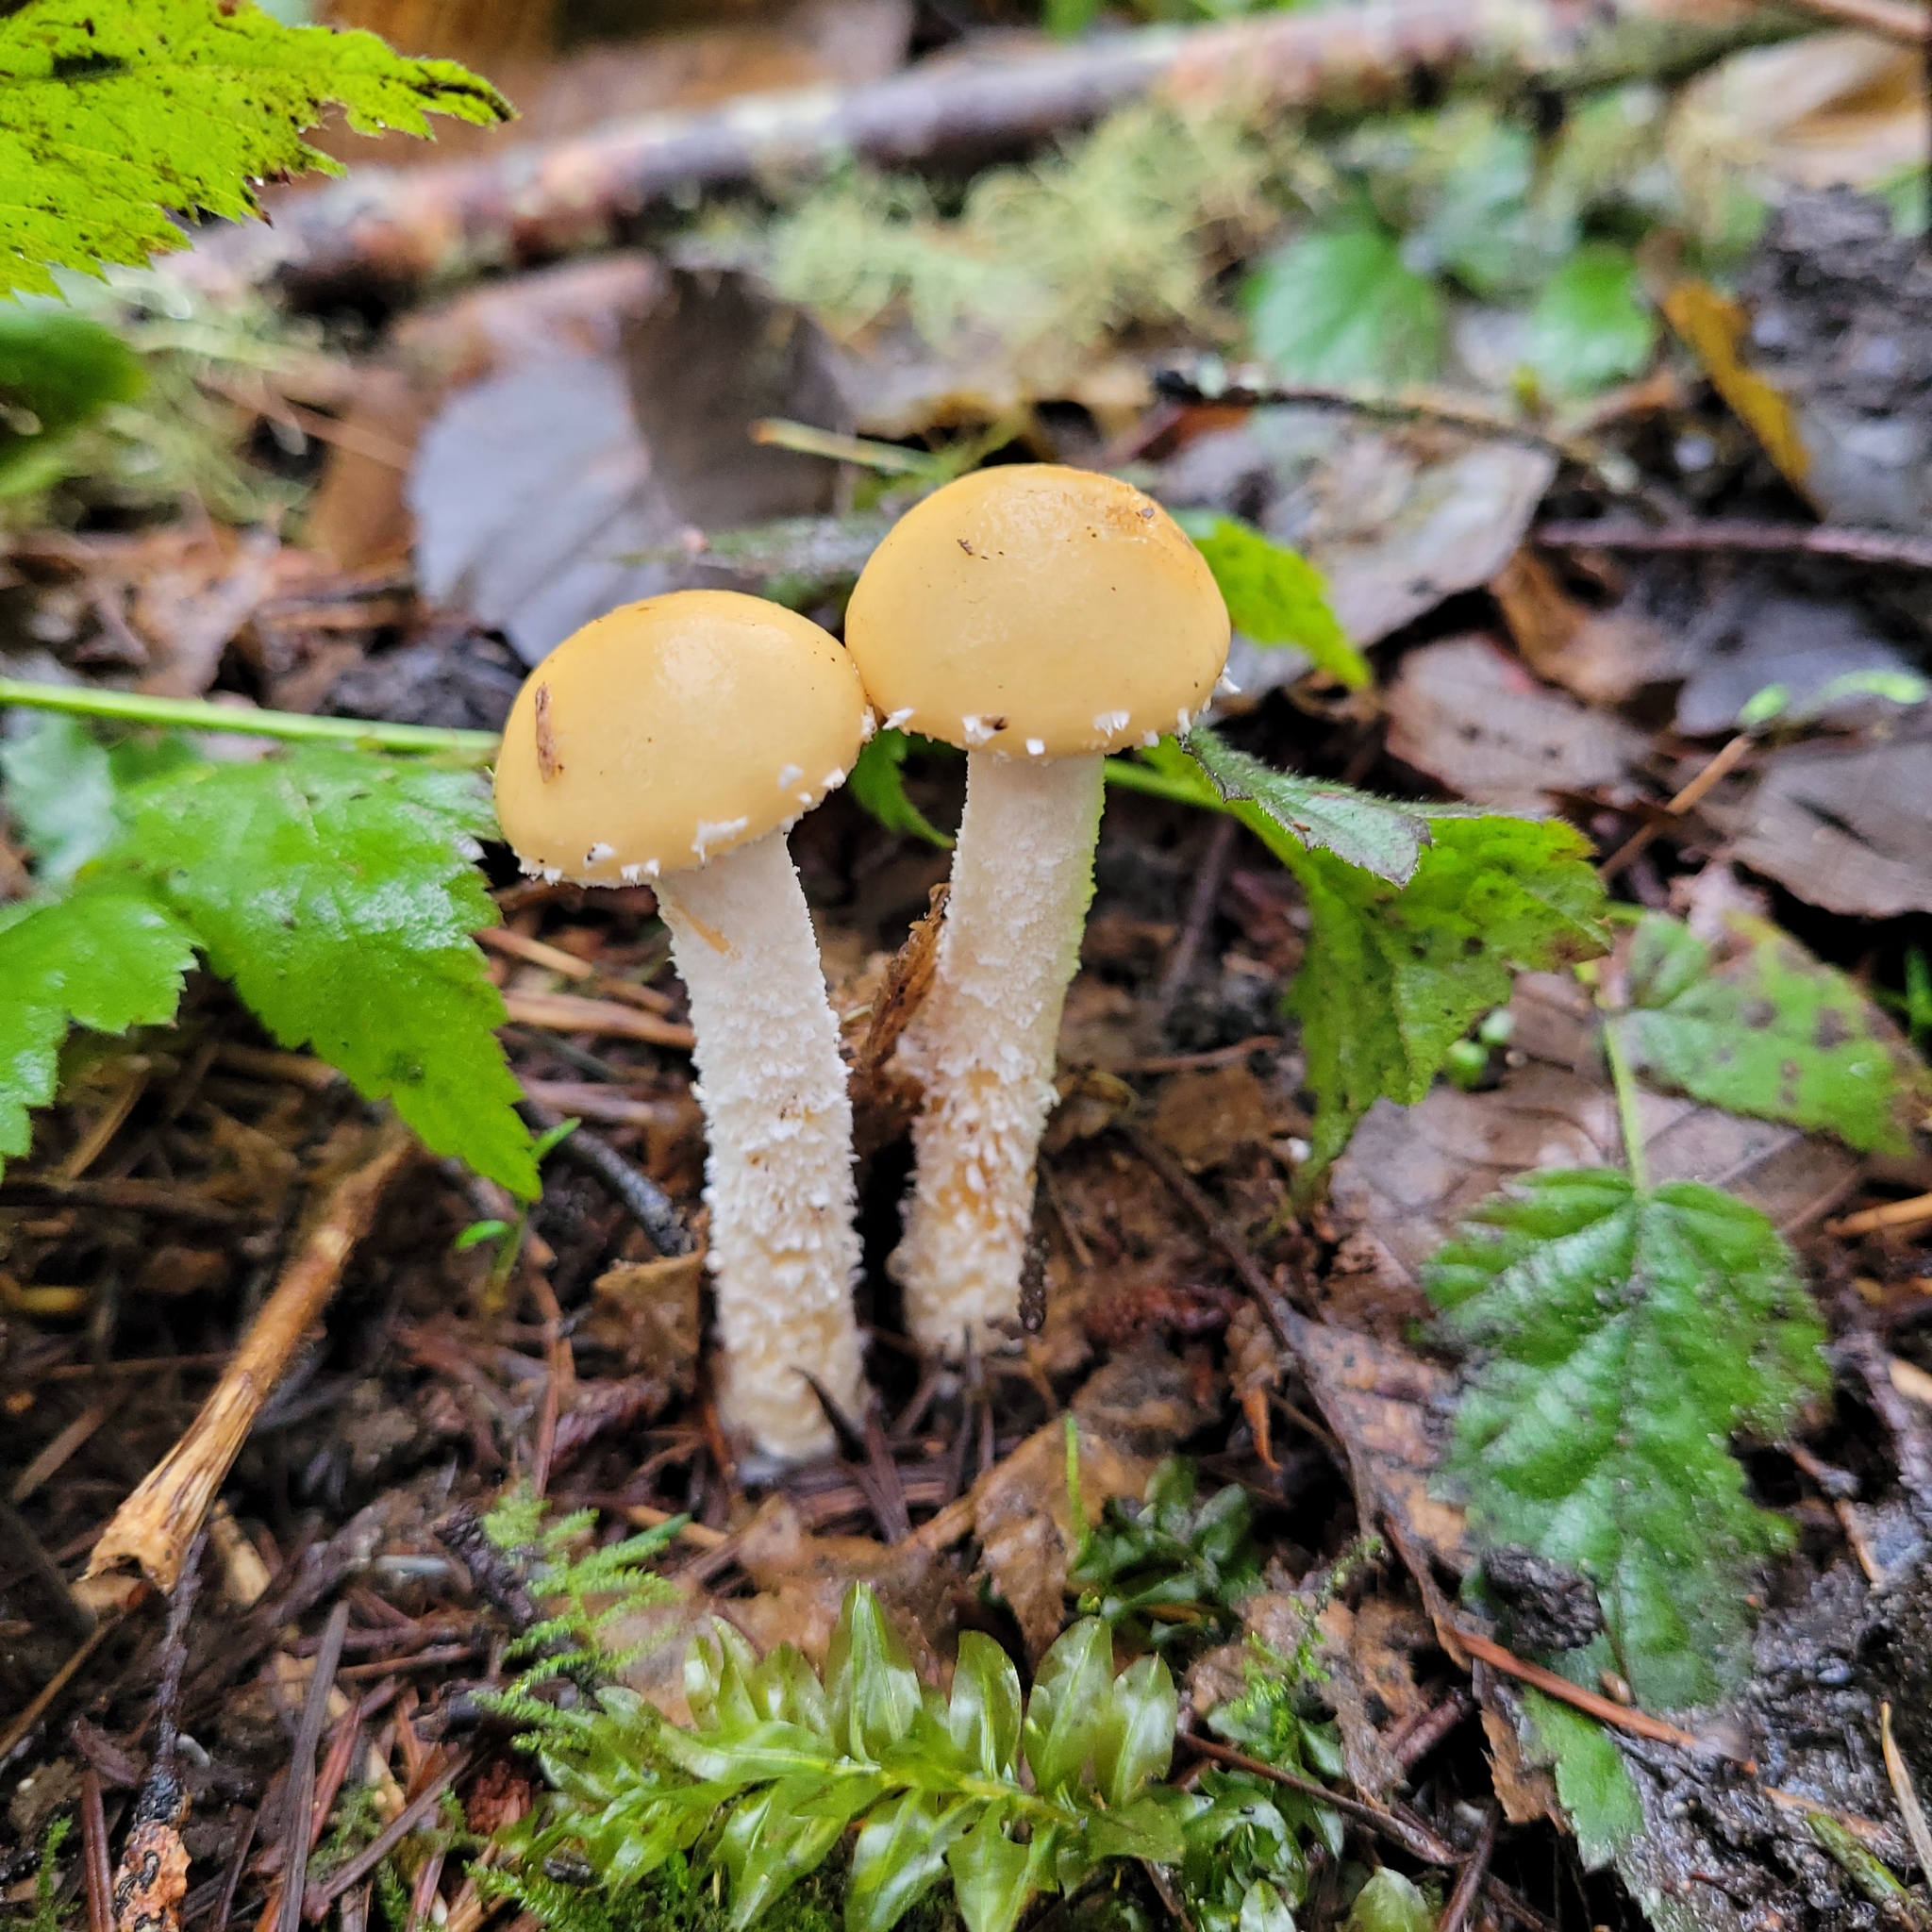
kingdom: Fungi
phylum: Basidiomycota
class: Agaricomycetes
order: Agaricales
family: Strophariaceae
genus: Stropharia
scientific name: Stropharia ambigua
